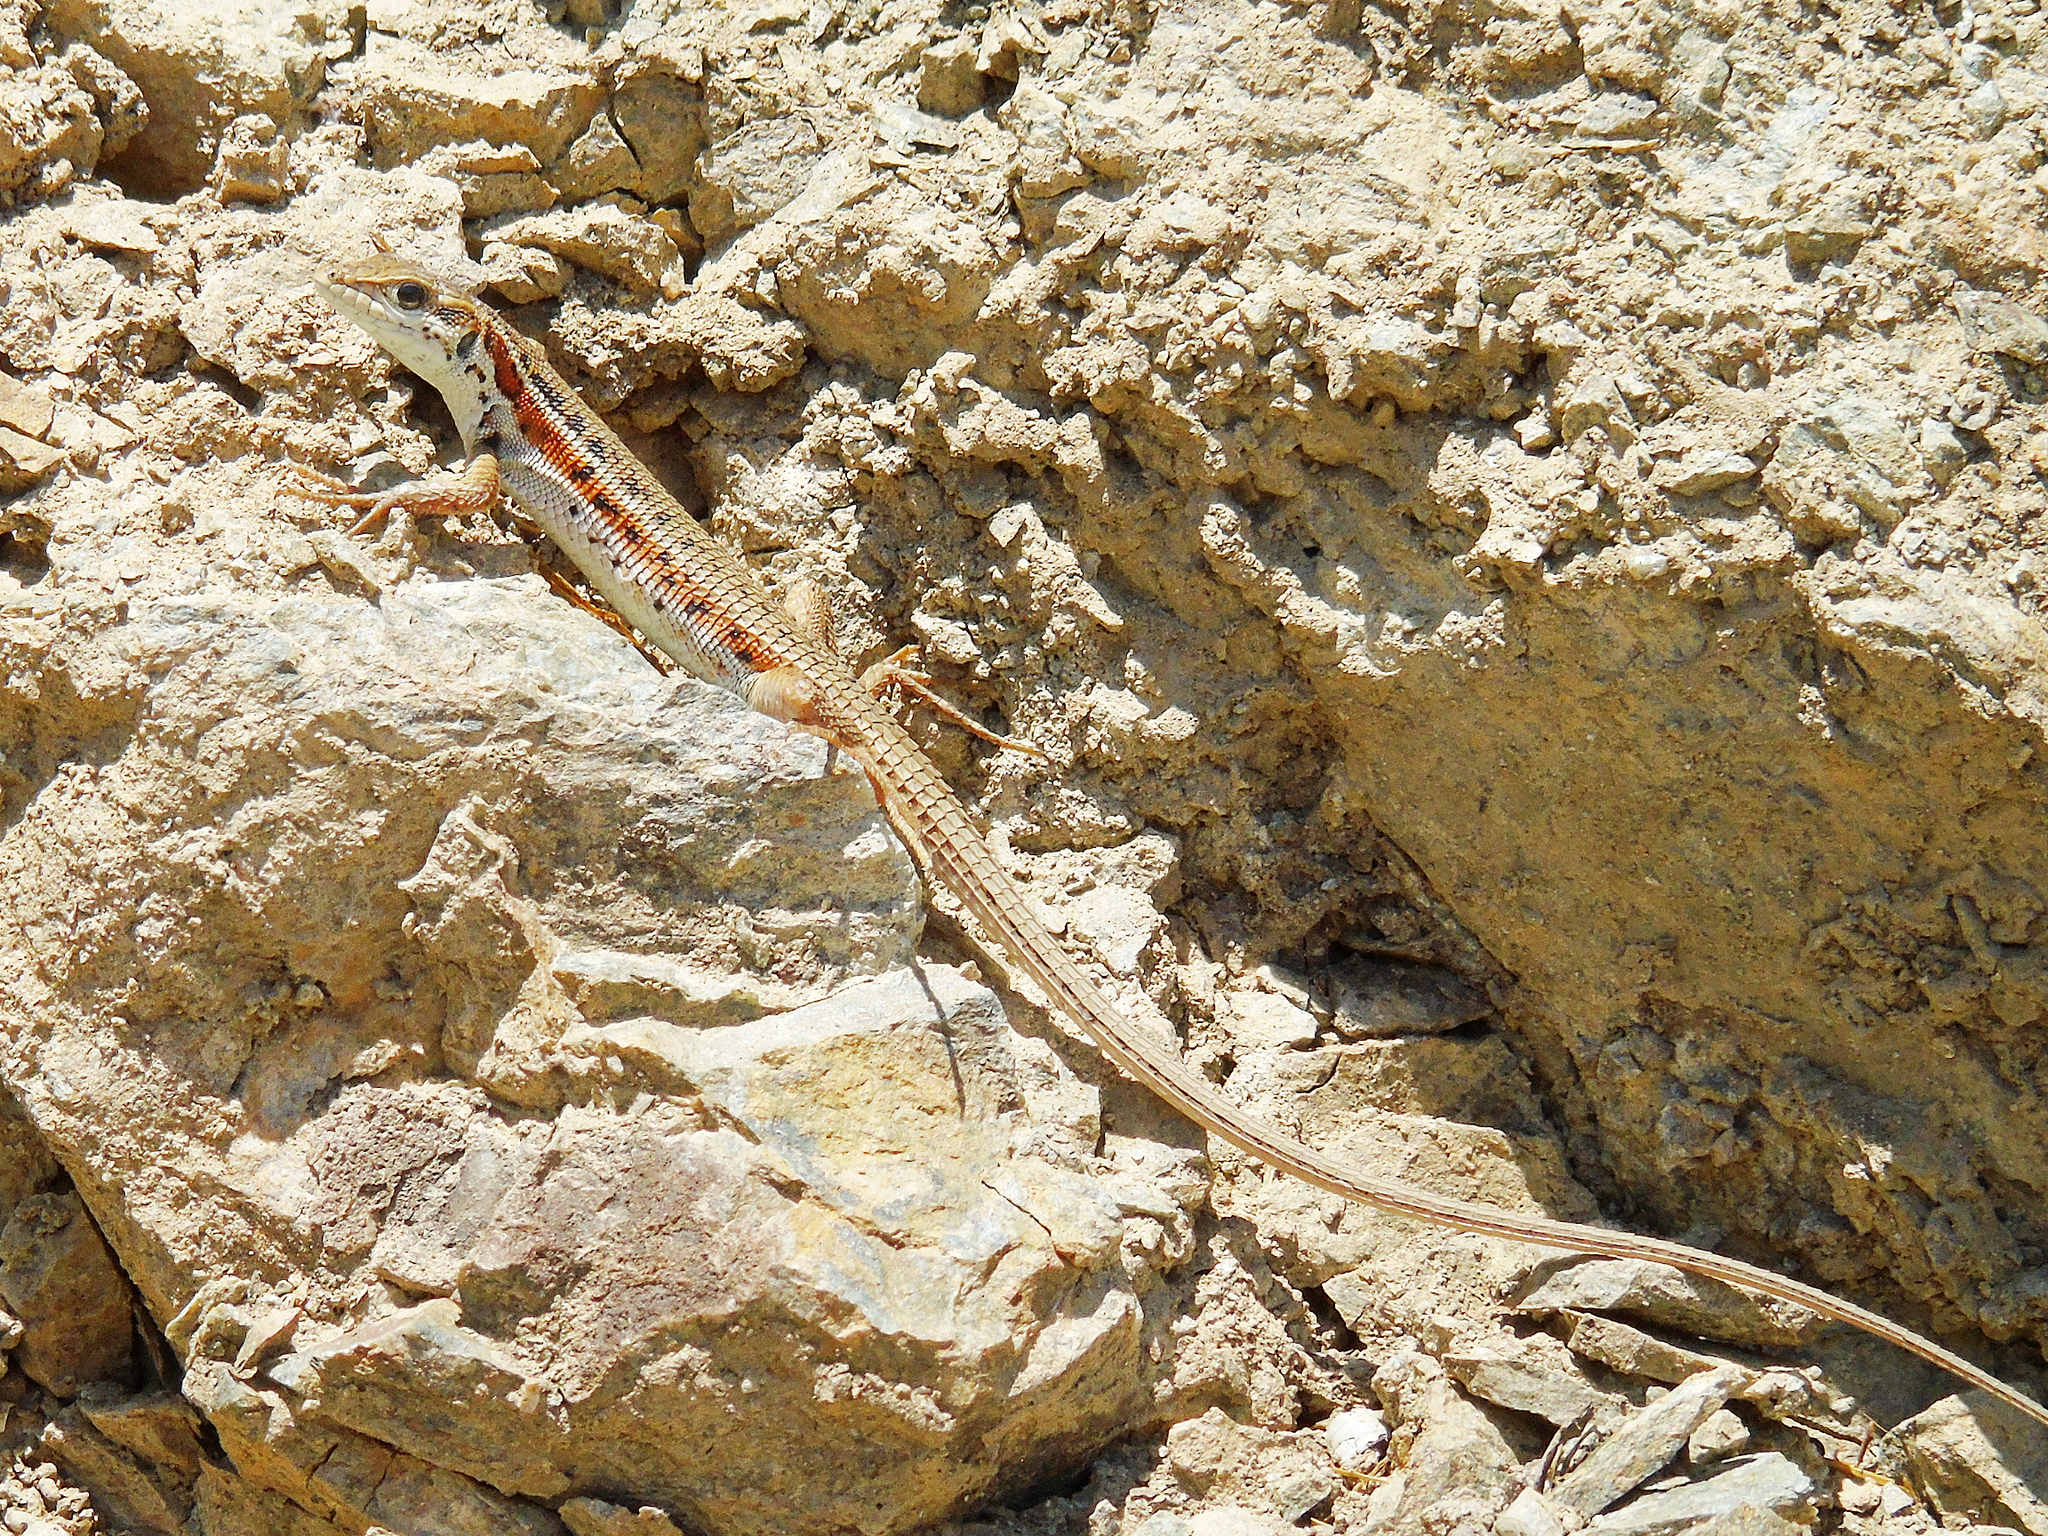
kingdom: Animalia
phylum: Chordata
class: Squamata
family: Lacertidae
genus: Ophisops
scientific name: Ophisops elegans
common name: Snake-eyed lizard
